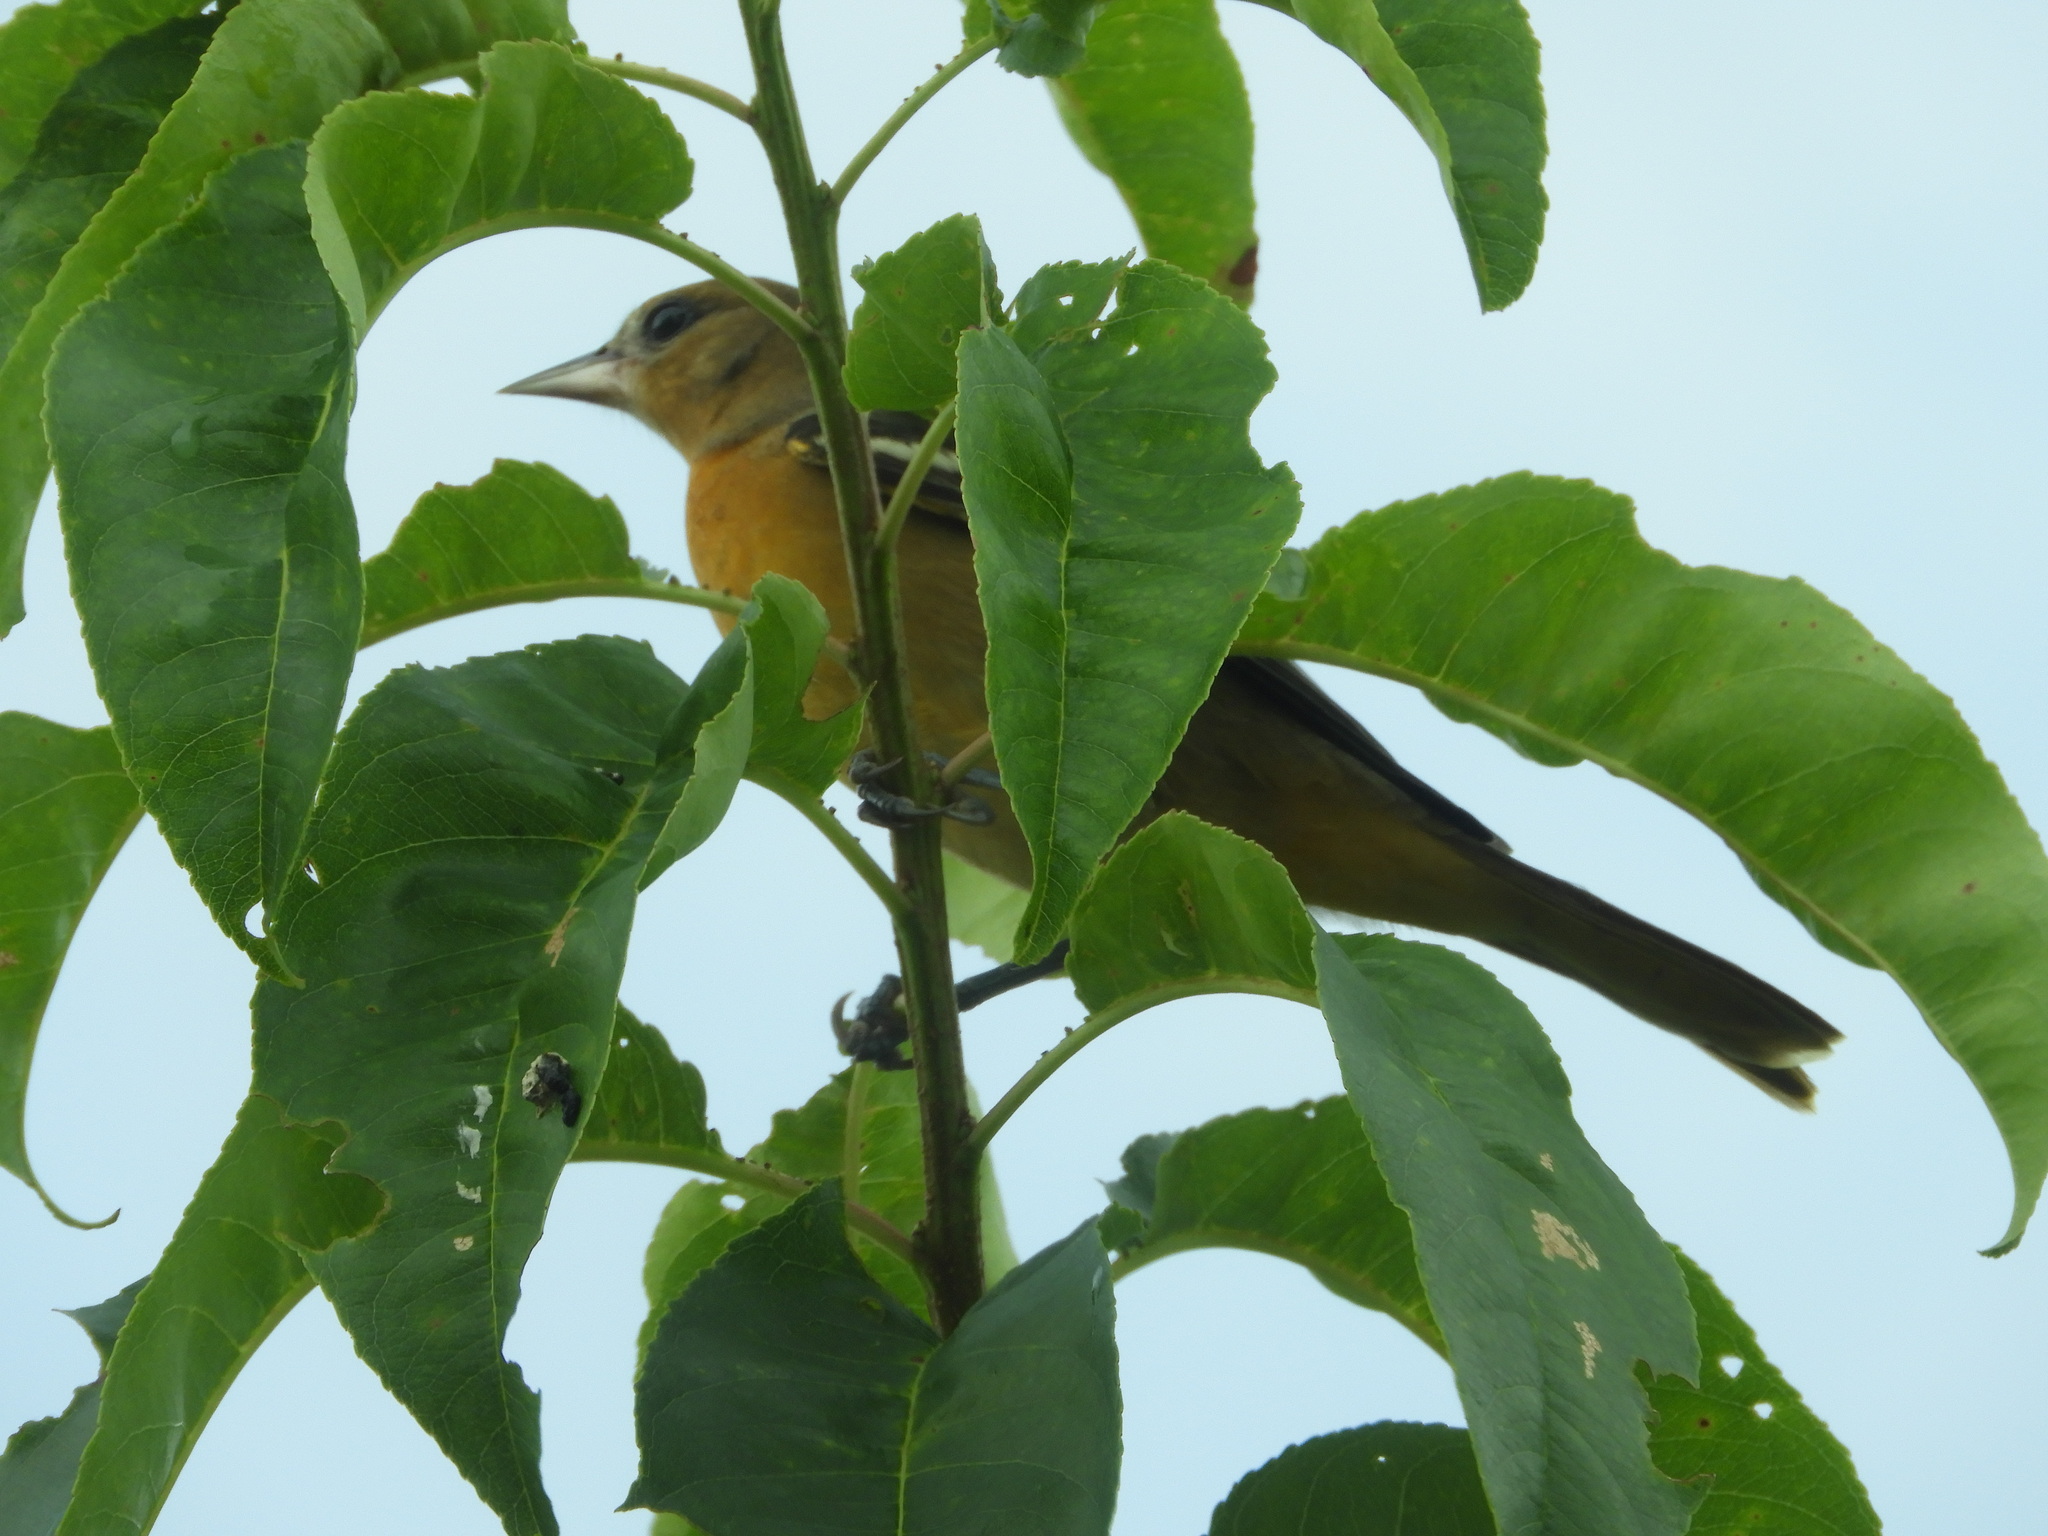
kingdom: Animalia
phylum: Chordata
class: Aves
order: Passeriformes
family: Icteridae
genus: Icterus
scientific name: Icterus galbula
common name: Baltimore oriole
